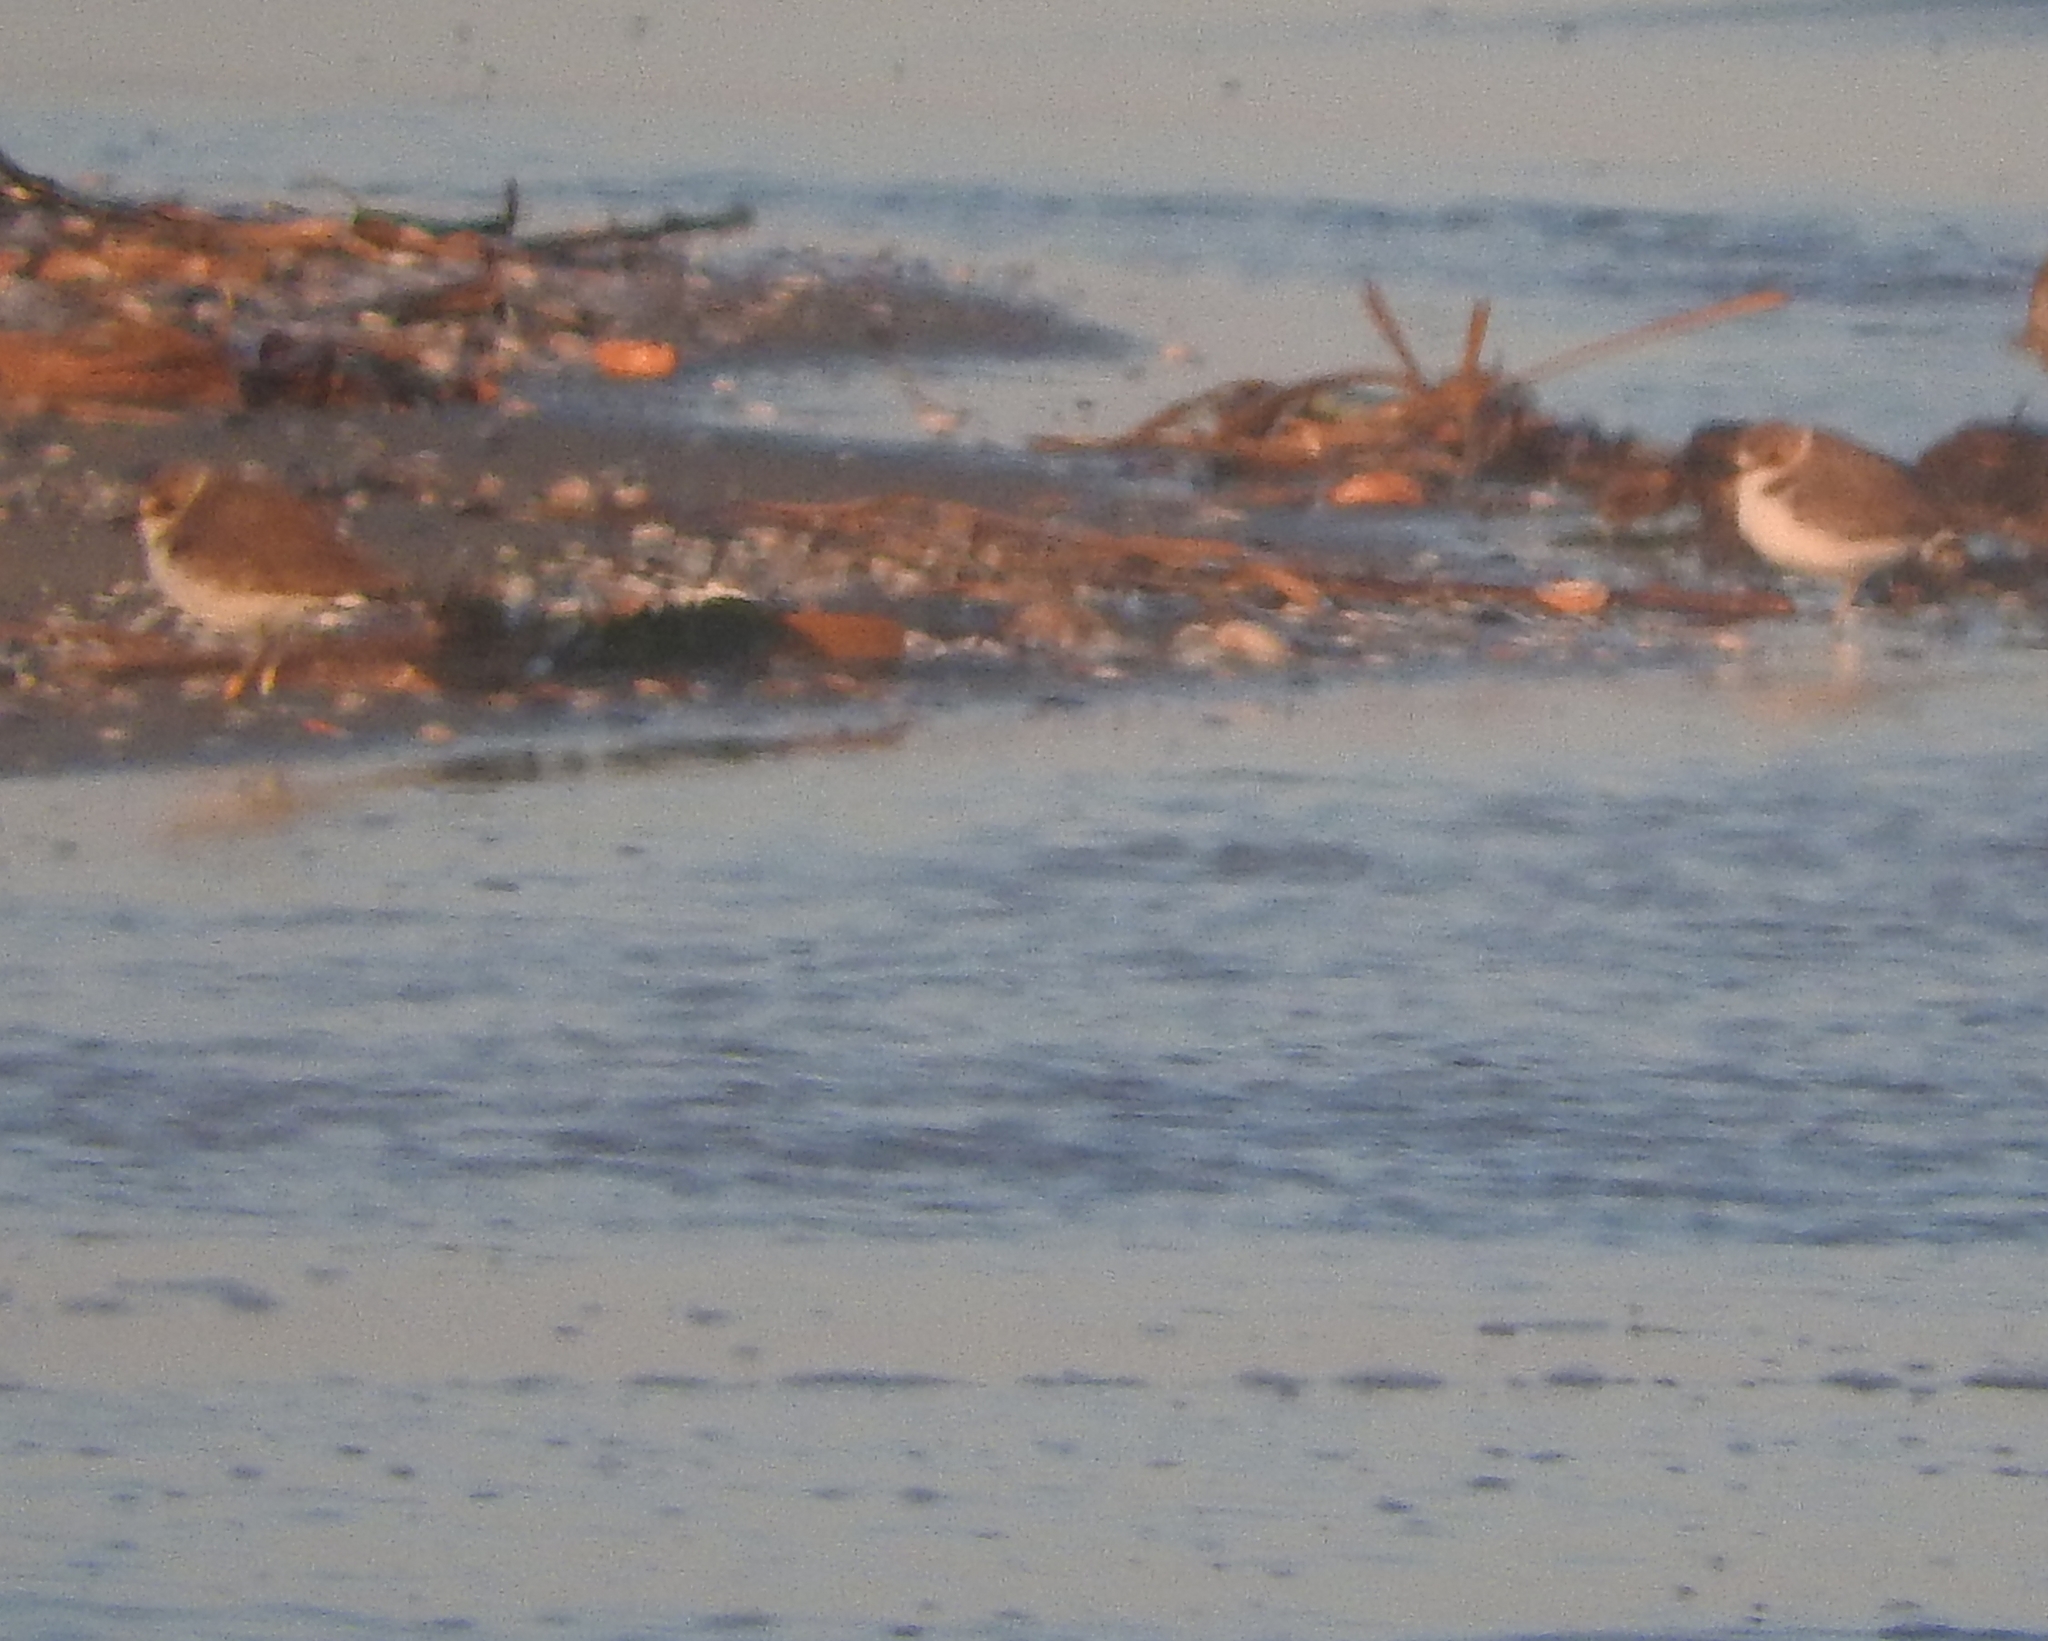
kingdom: Animalia
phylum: Chordata
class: Aves
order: Charadriiformes
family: Charadriidae
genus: Charadrius
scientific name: Charadrius alexandrinus
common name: Kentish plover
